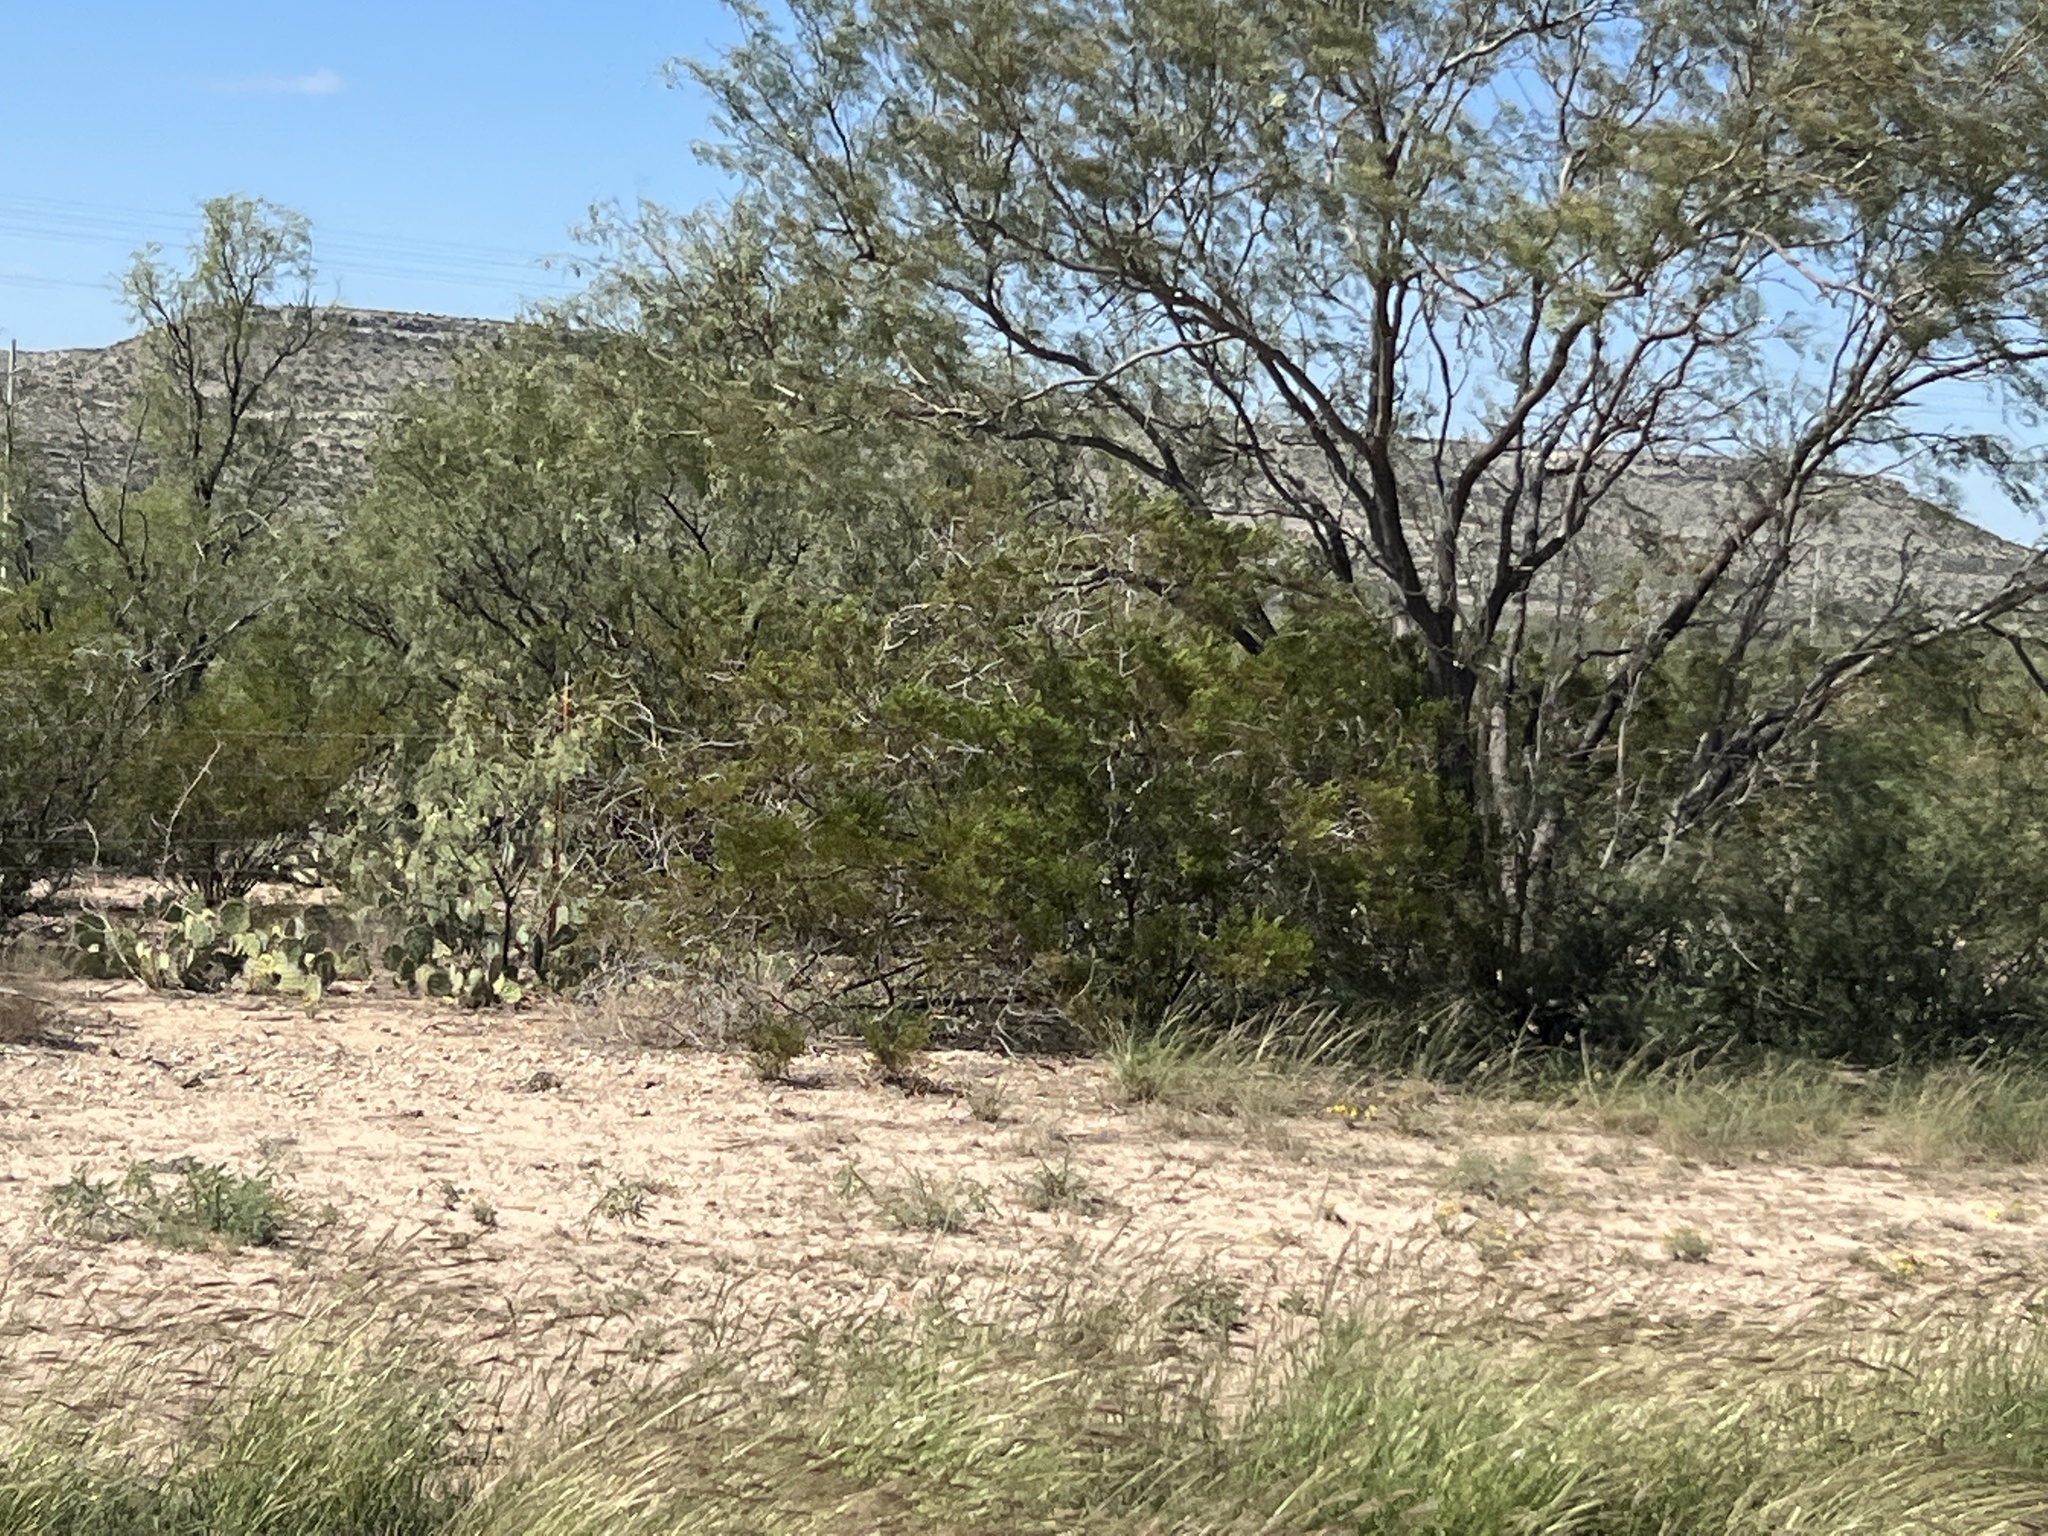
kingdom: Plantae
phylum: Tracheophyta
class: Magnoliopsida
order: Zygophyllales
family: Zygophyllaceae
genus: Larrea
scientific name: Larrea tridentata
